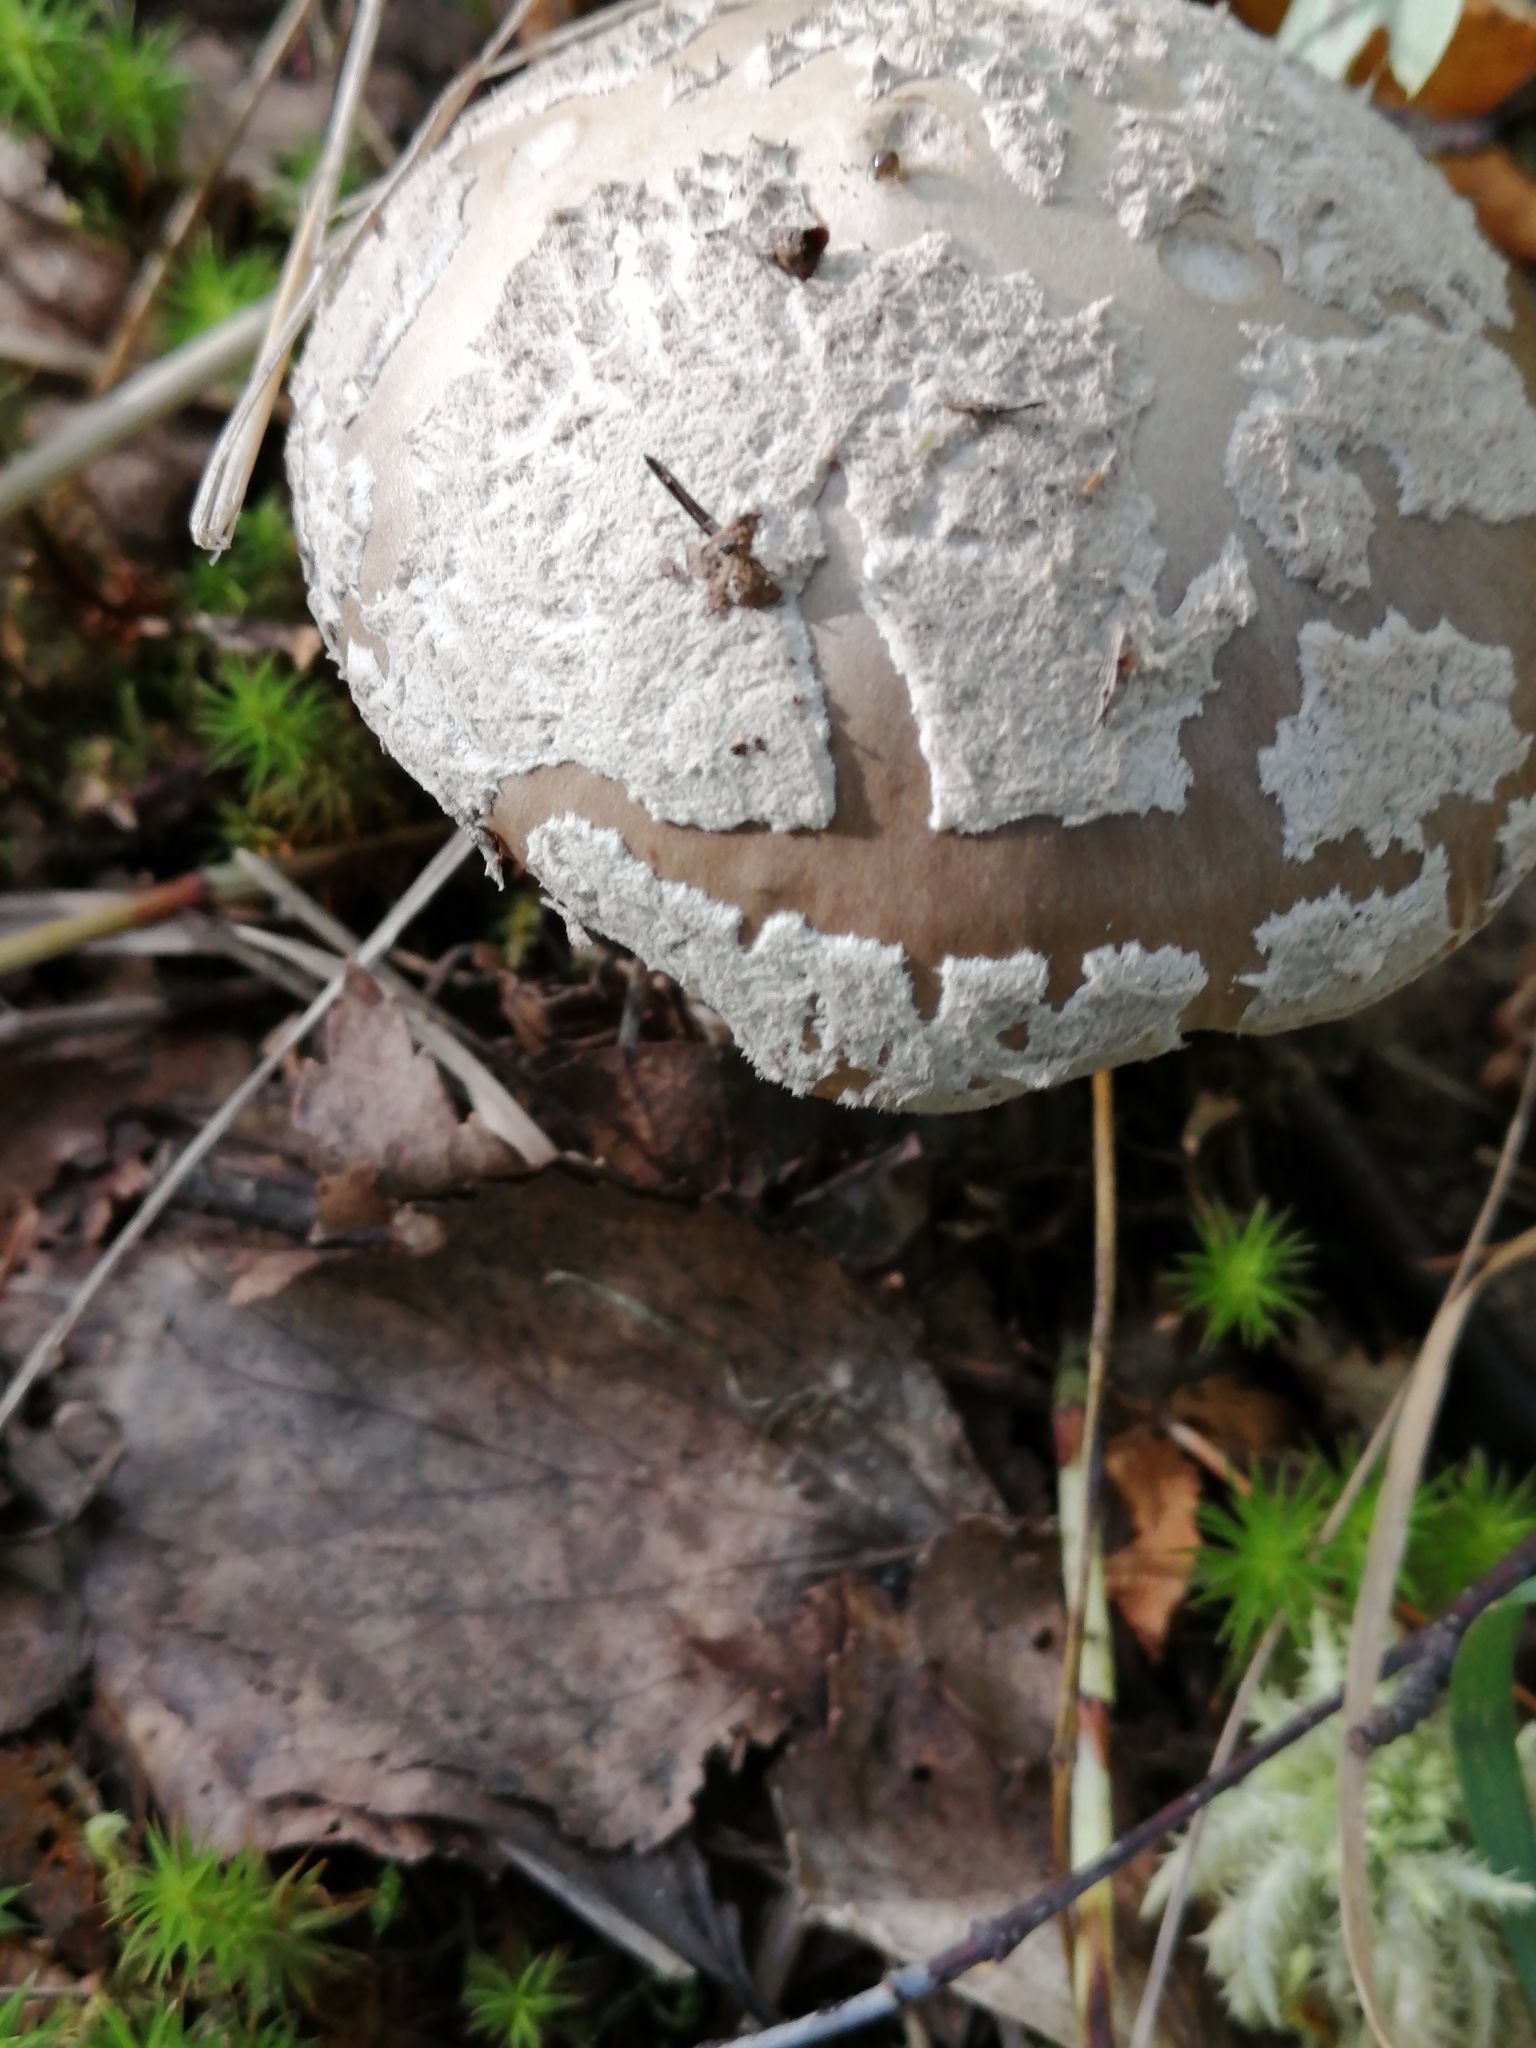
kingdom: Fungi
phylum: Basidiomycota
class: Agaricomycetes
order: Agaricales
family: Amanitaceae
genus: Amanita
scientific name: Amanita pantherina
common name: Panthercap
